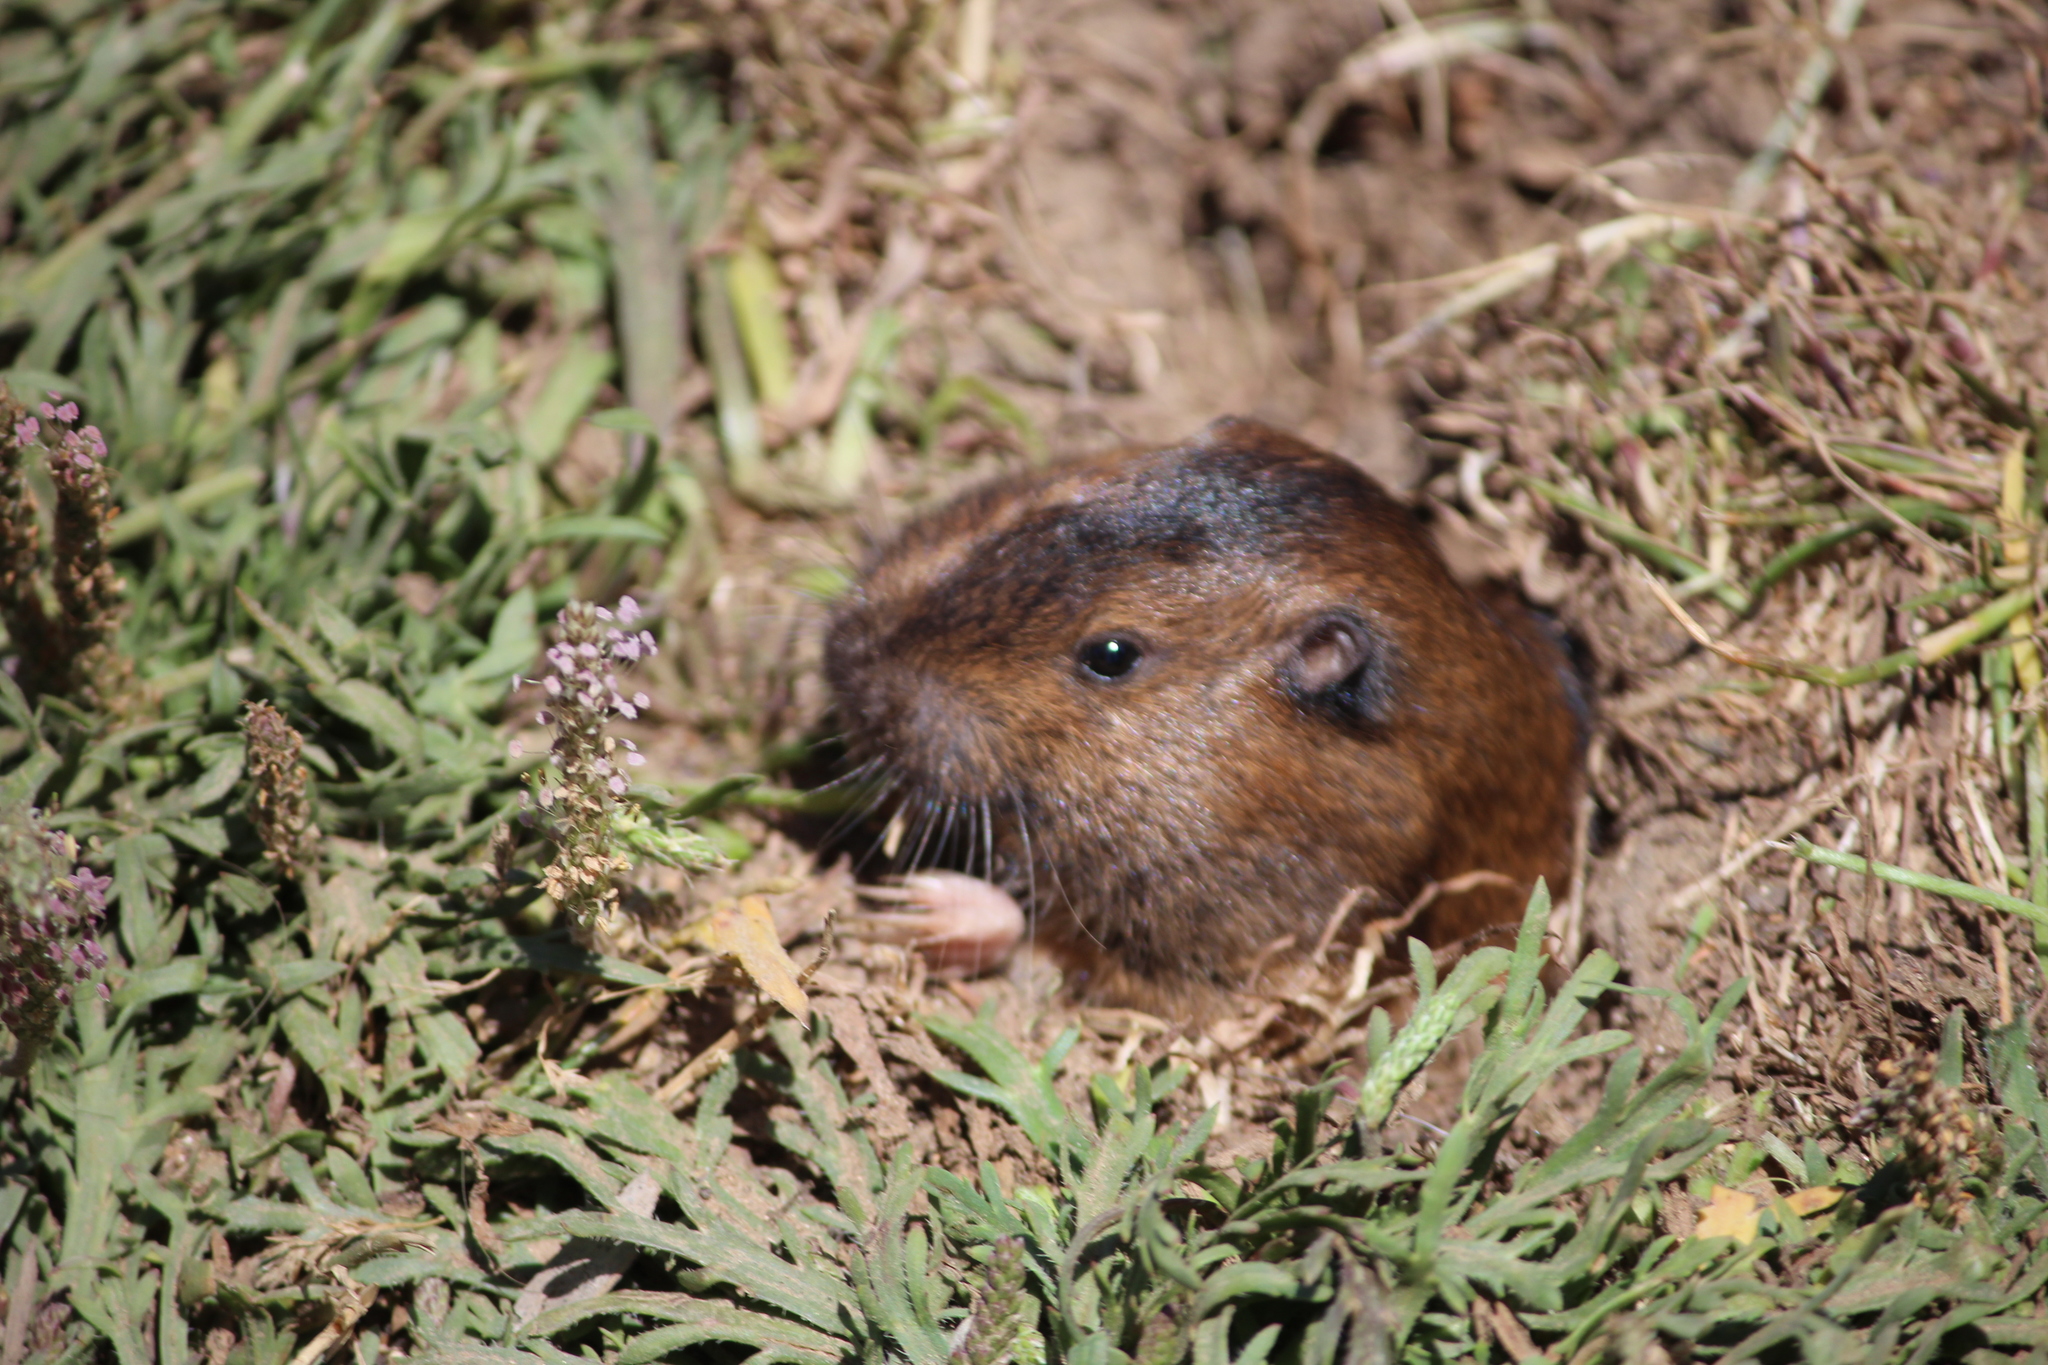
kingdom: Animalia
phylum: Chordata
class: Mammalia
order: Rodentia
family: Geomyidae
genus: Thomomys
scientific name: Thomomys bottae
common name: Botta's pocket gopher
